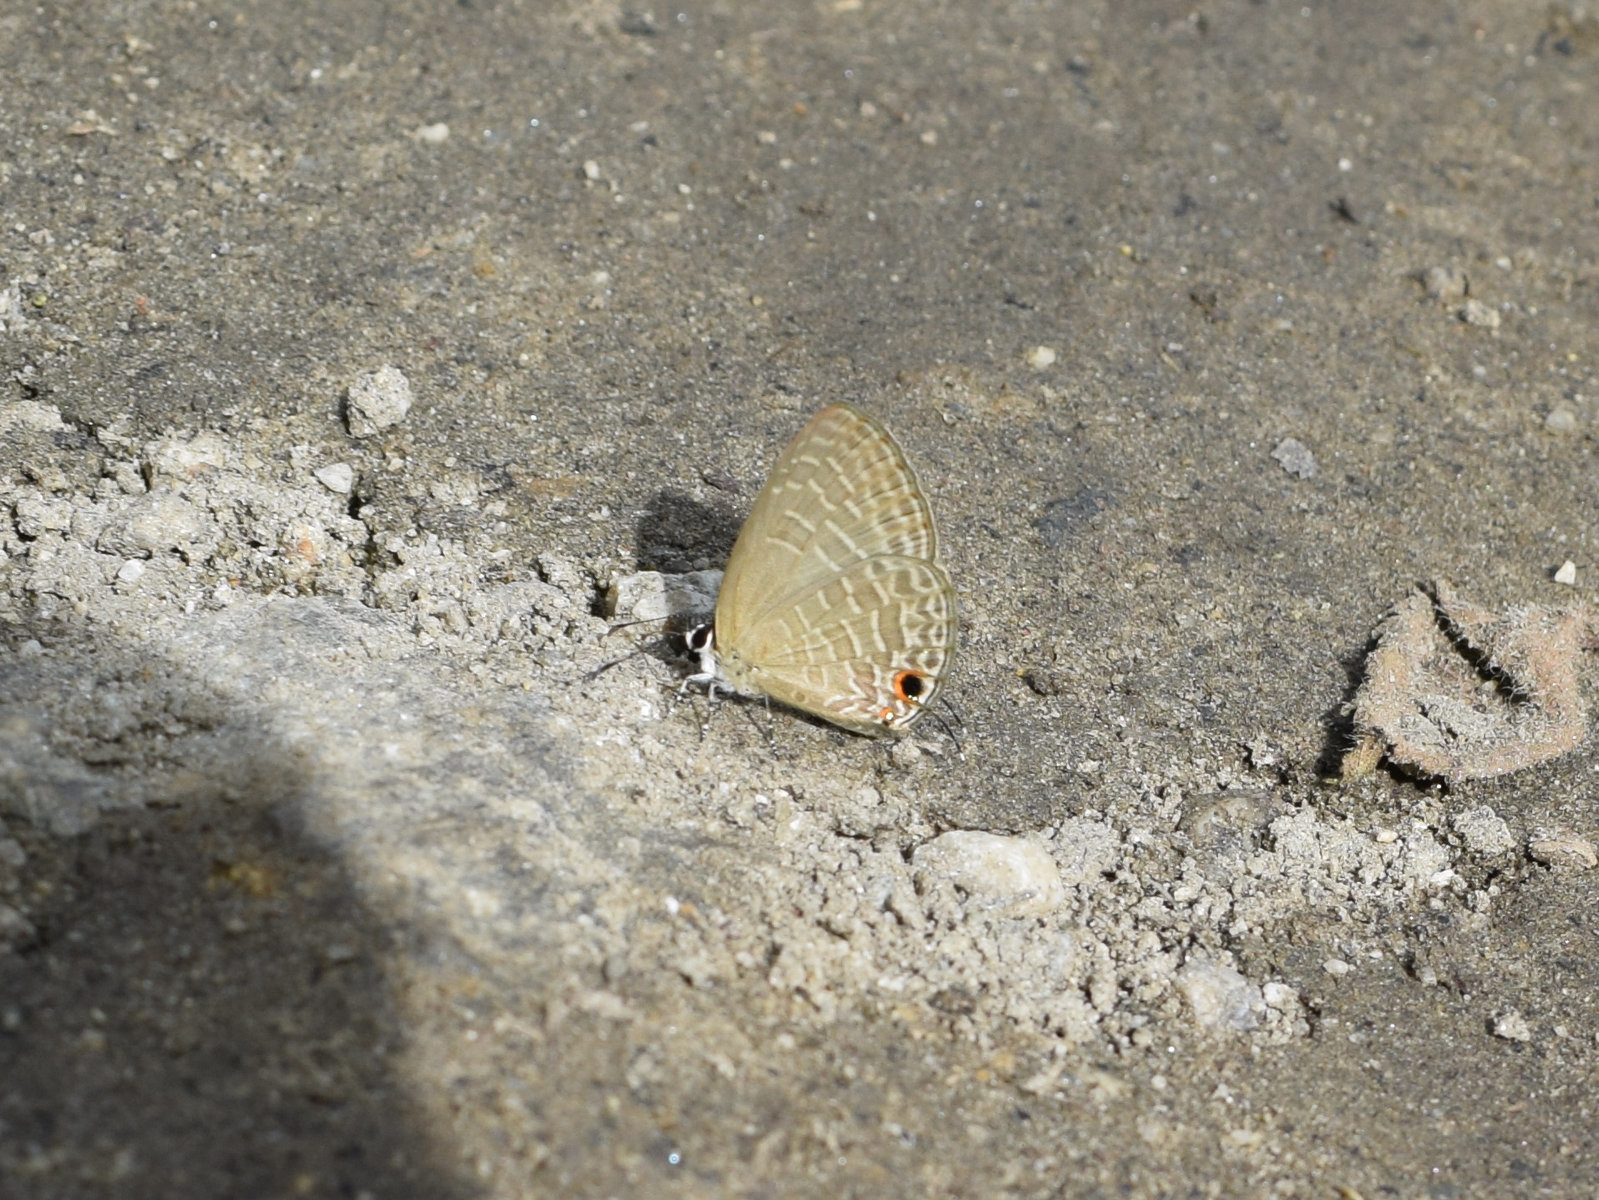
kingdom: Animalia
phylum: Arthropoda
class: Insecta
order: Lepidoptera
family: Lycaenidae
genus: Jamides
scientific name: Jamides bochus
